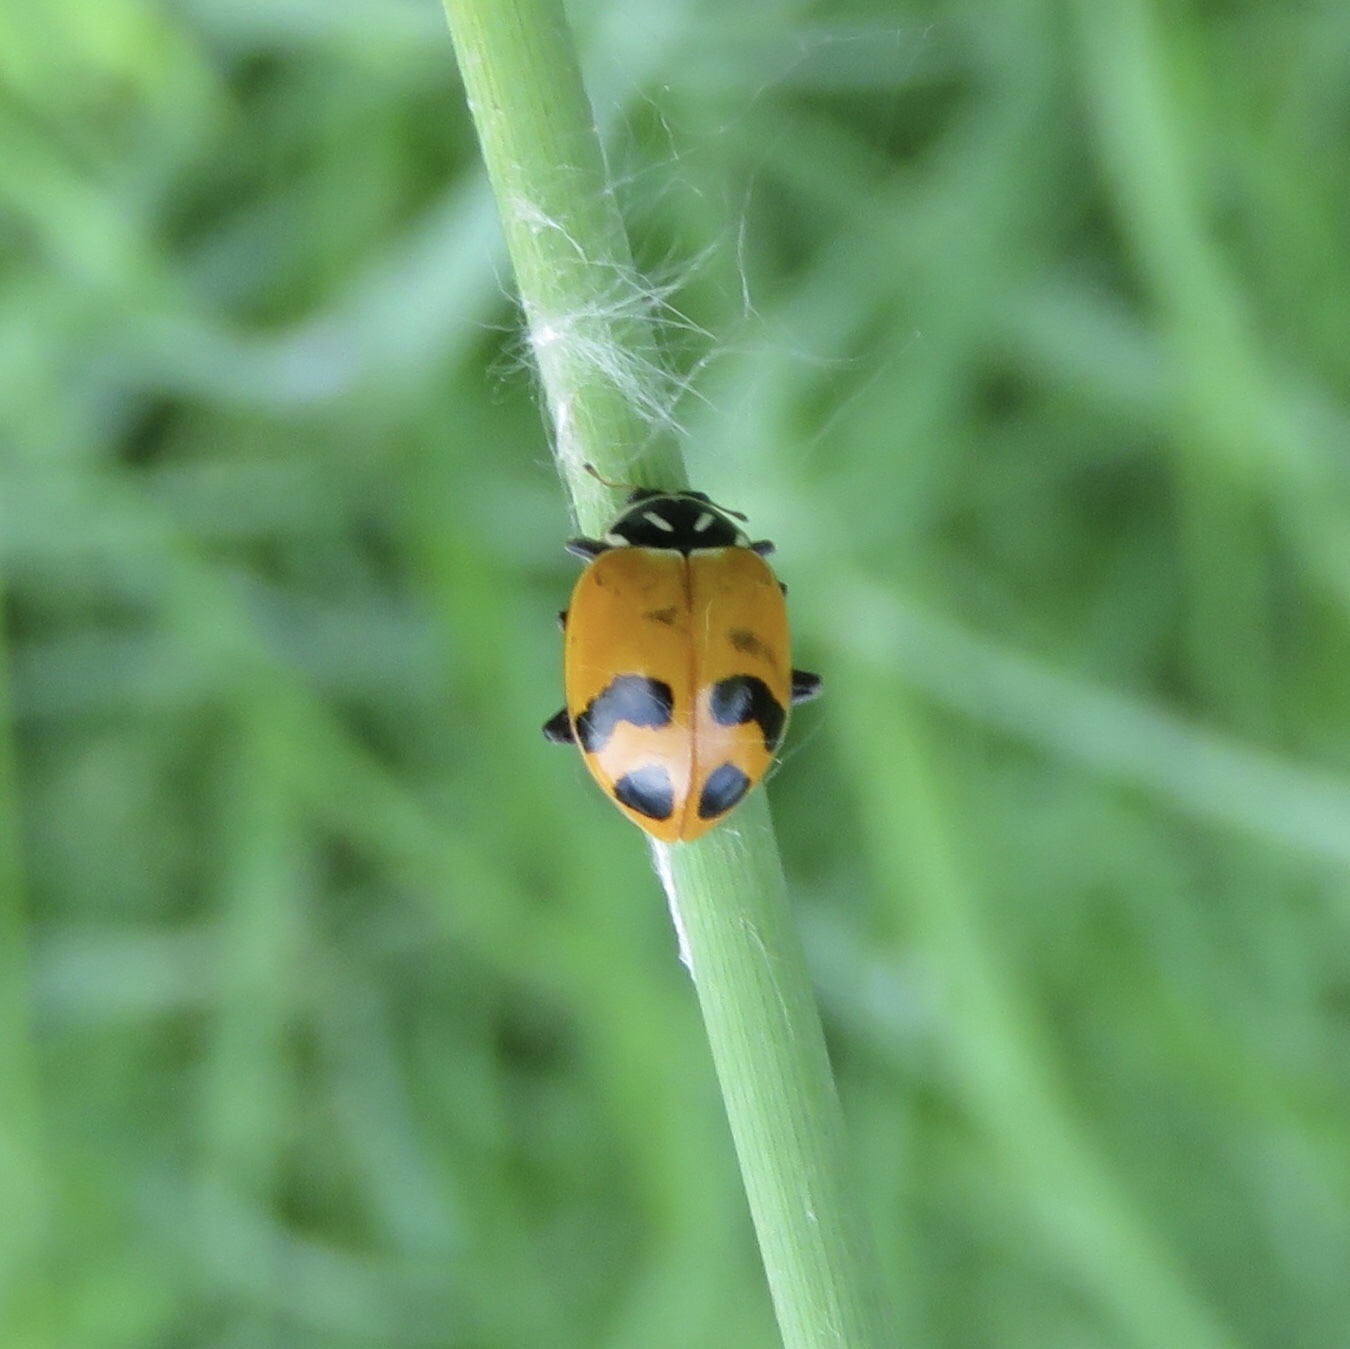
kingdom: Animalia
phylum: Arthropoda
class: Insecta
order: Coleoptera
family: Coccinellidae
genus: Hippodamia
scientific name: Hippodamia glacialis
